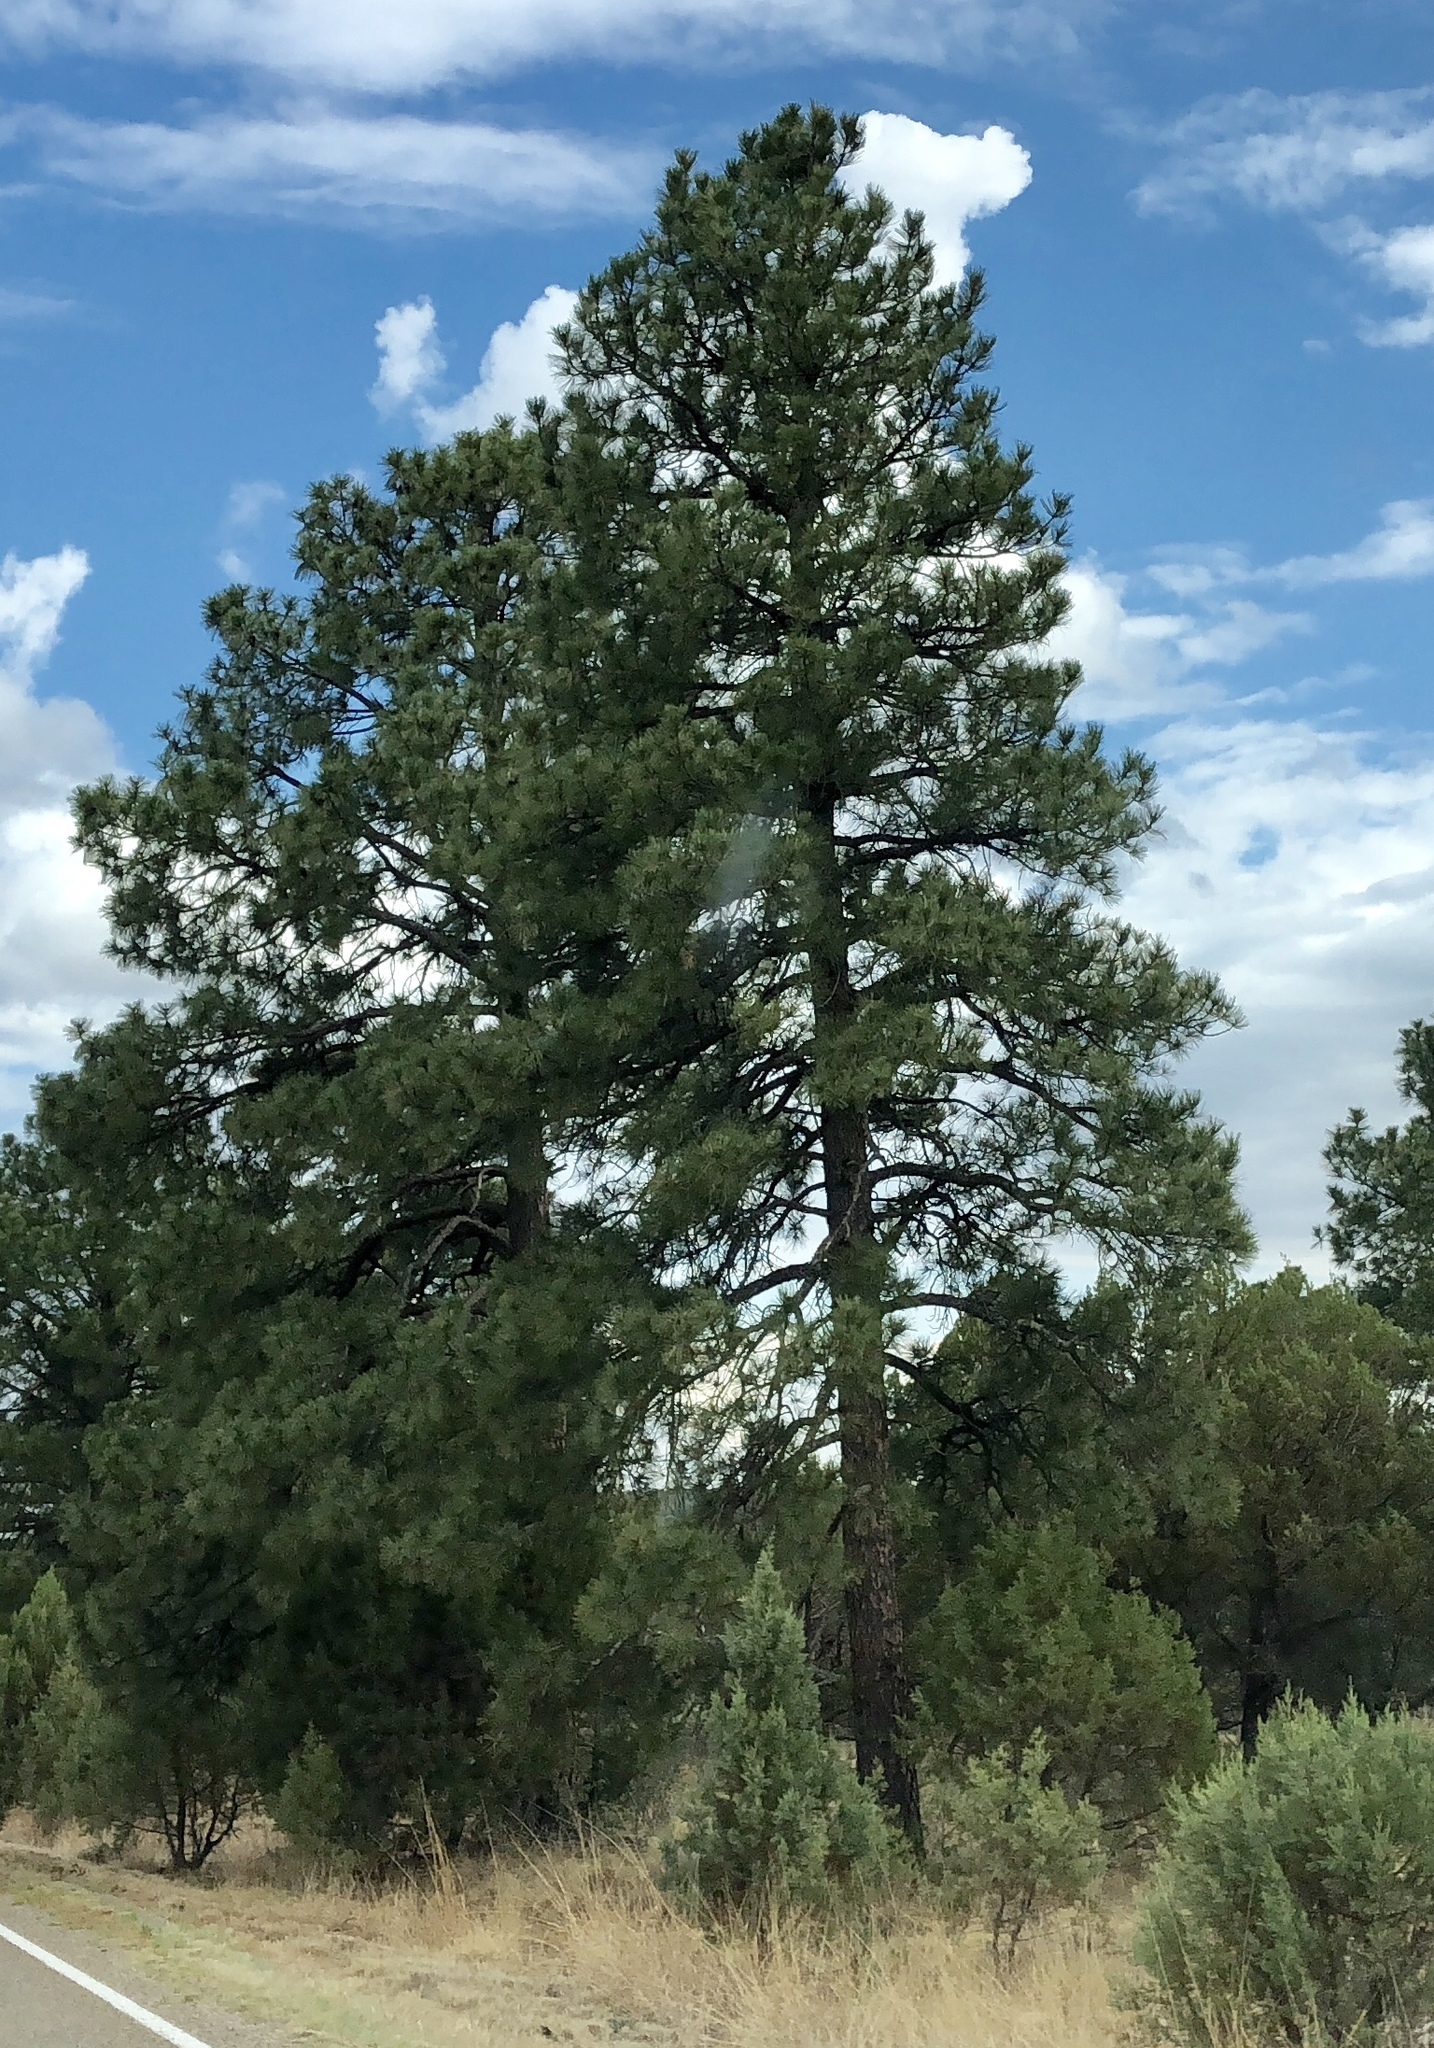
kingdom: Plantae
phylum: Tracheophyta
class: Pinopsida
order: Pinales
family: Pinaceae
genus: Pinus
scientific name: Pinus ponderosa
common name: Western yellow-pine
